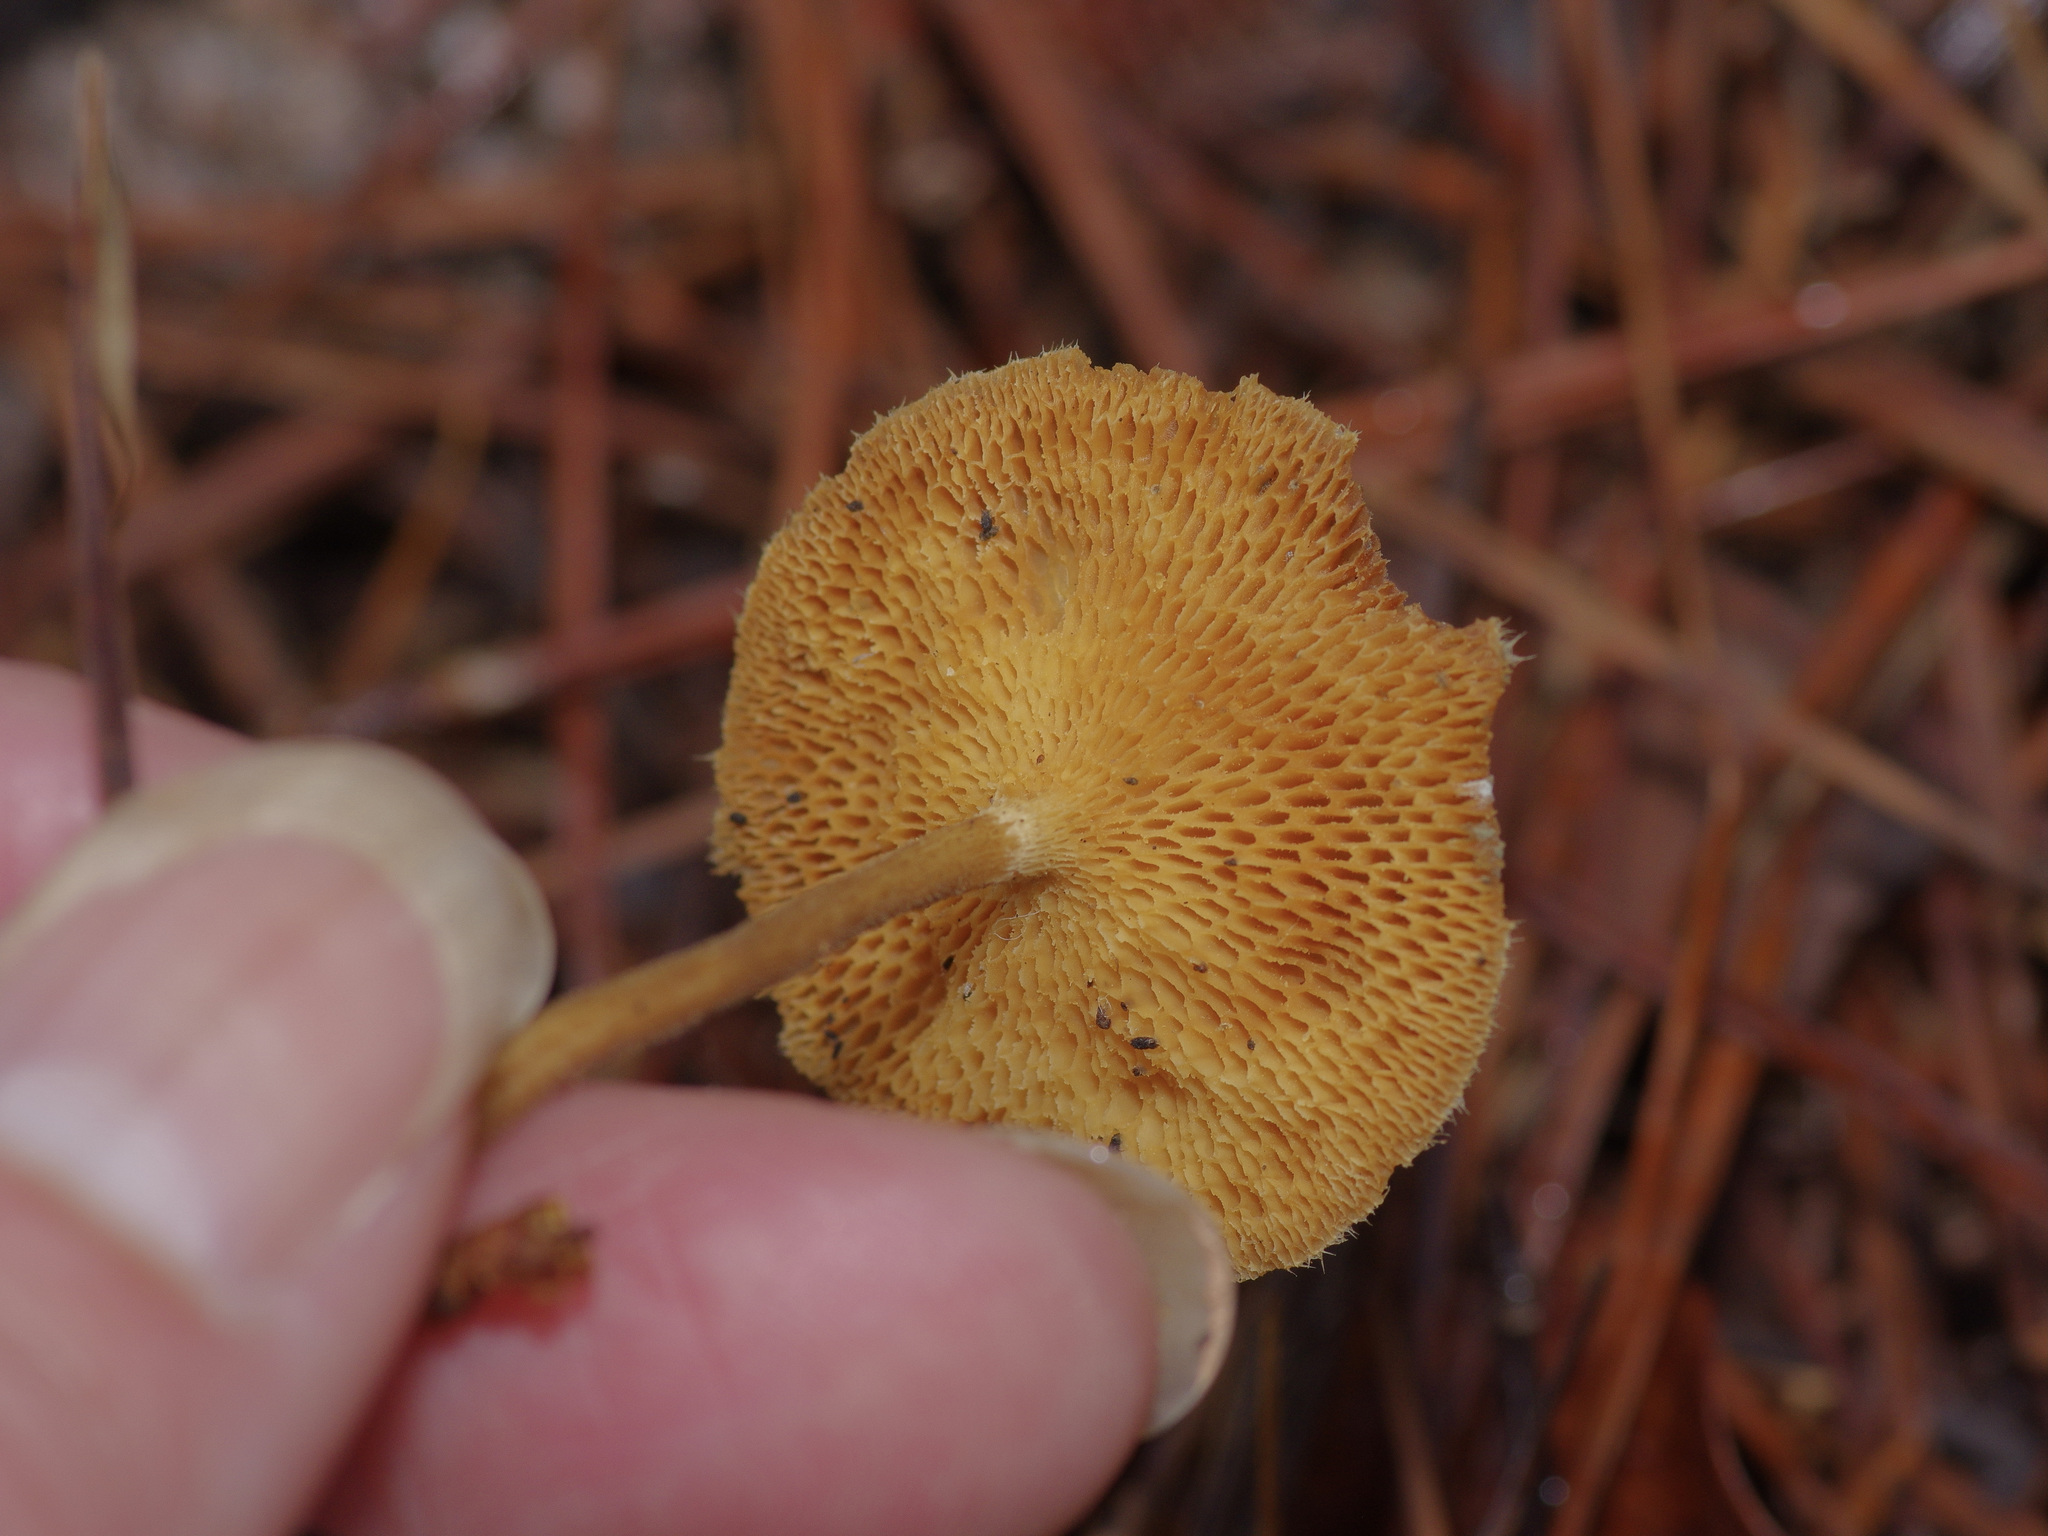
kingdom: Fungi
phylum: Basidiomycota
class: Agaricomycetes
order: Polyporales
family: Polyporaceae
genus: Lentinus
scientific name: Lentinus arcularius
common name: Spring polypore
